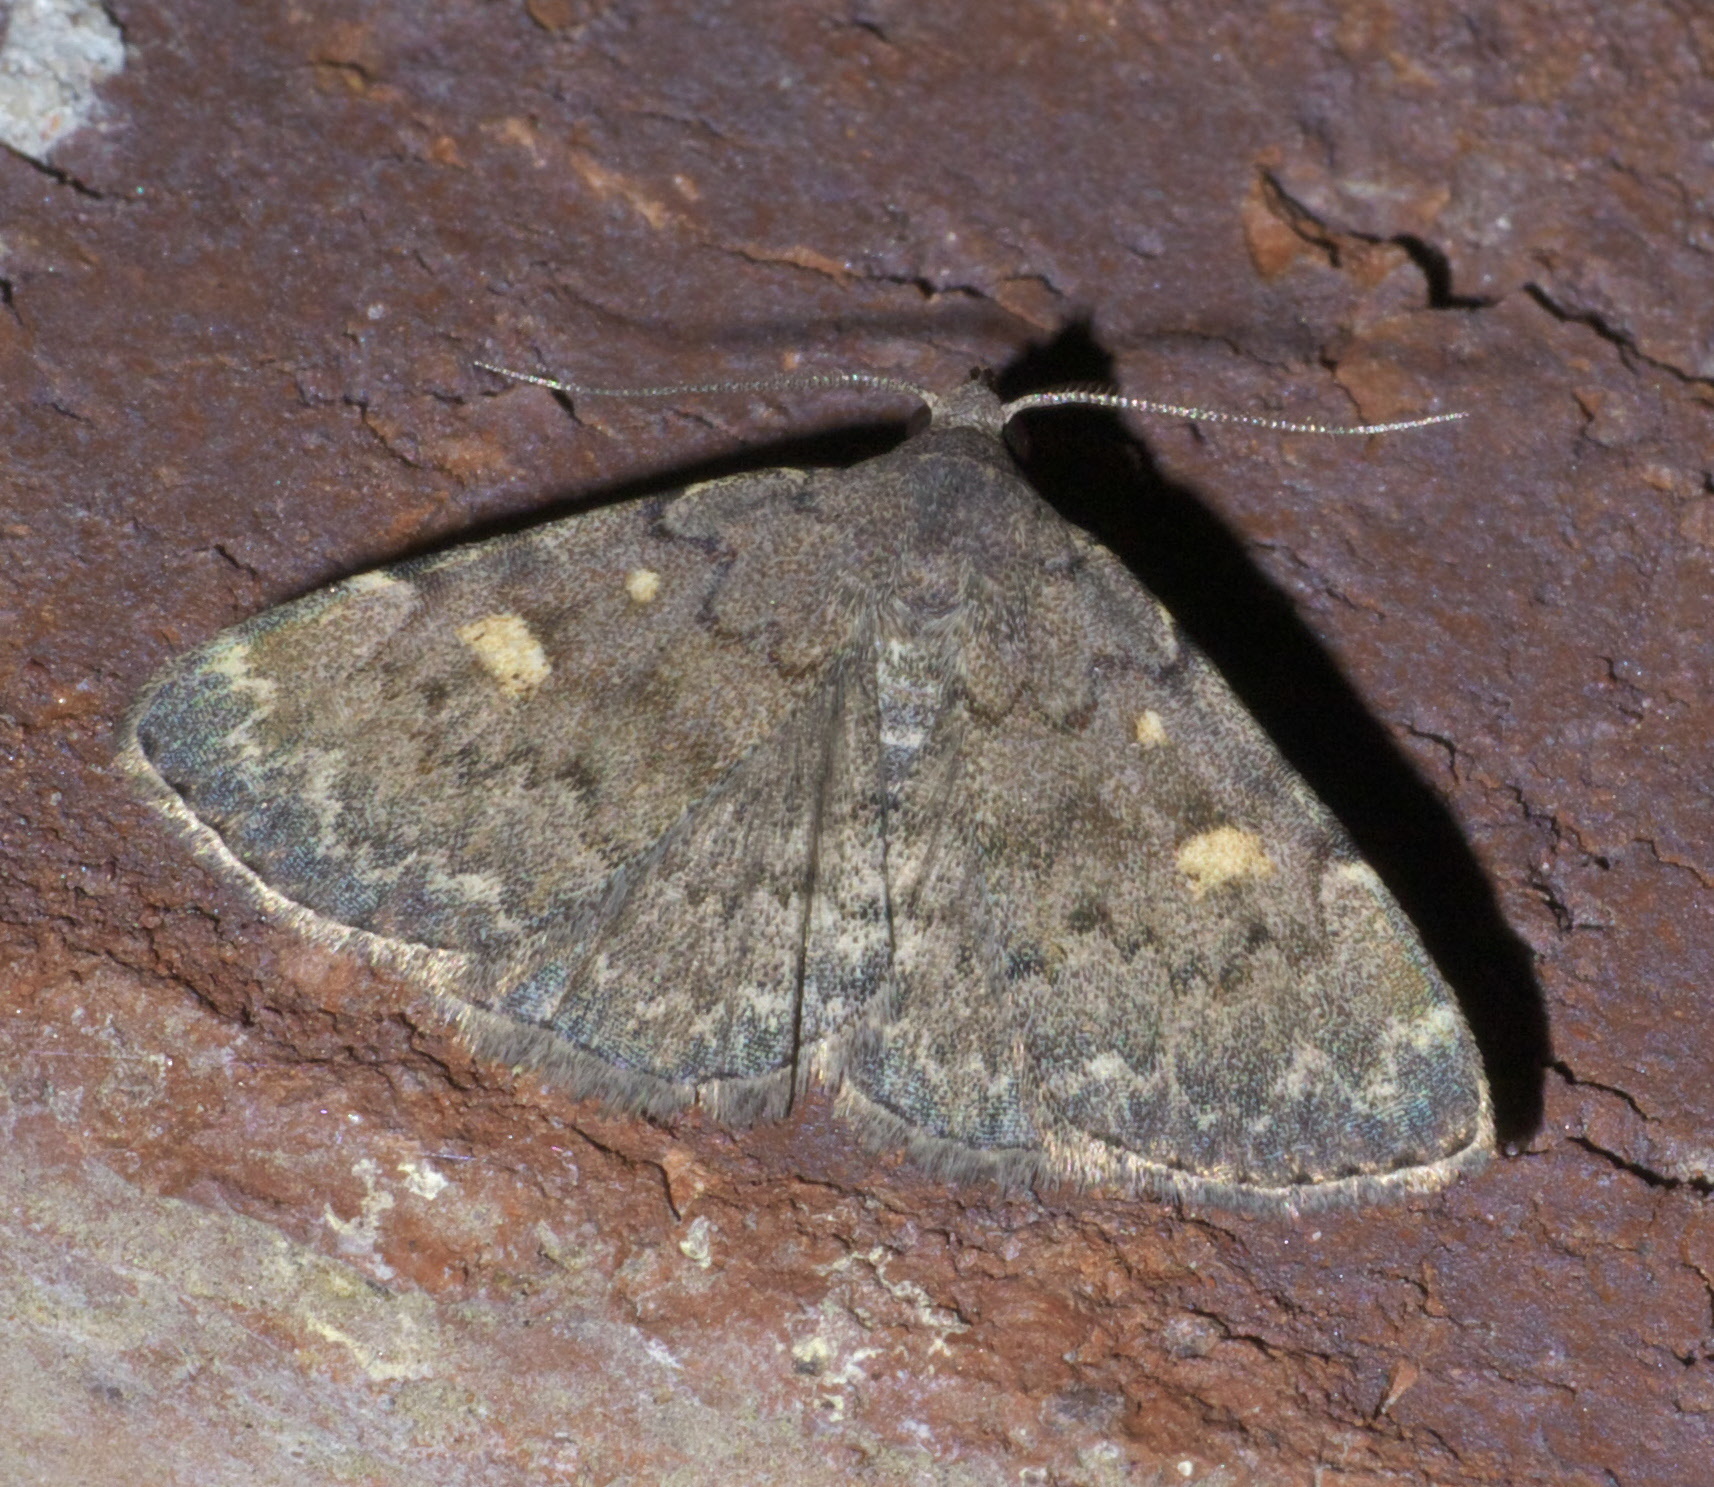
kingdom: Animalia
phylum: Arthropoda
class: Insecta
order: Lepidoptera
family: Erebidae
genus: Idia
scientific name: Idia aemula
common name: Common idia moth
